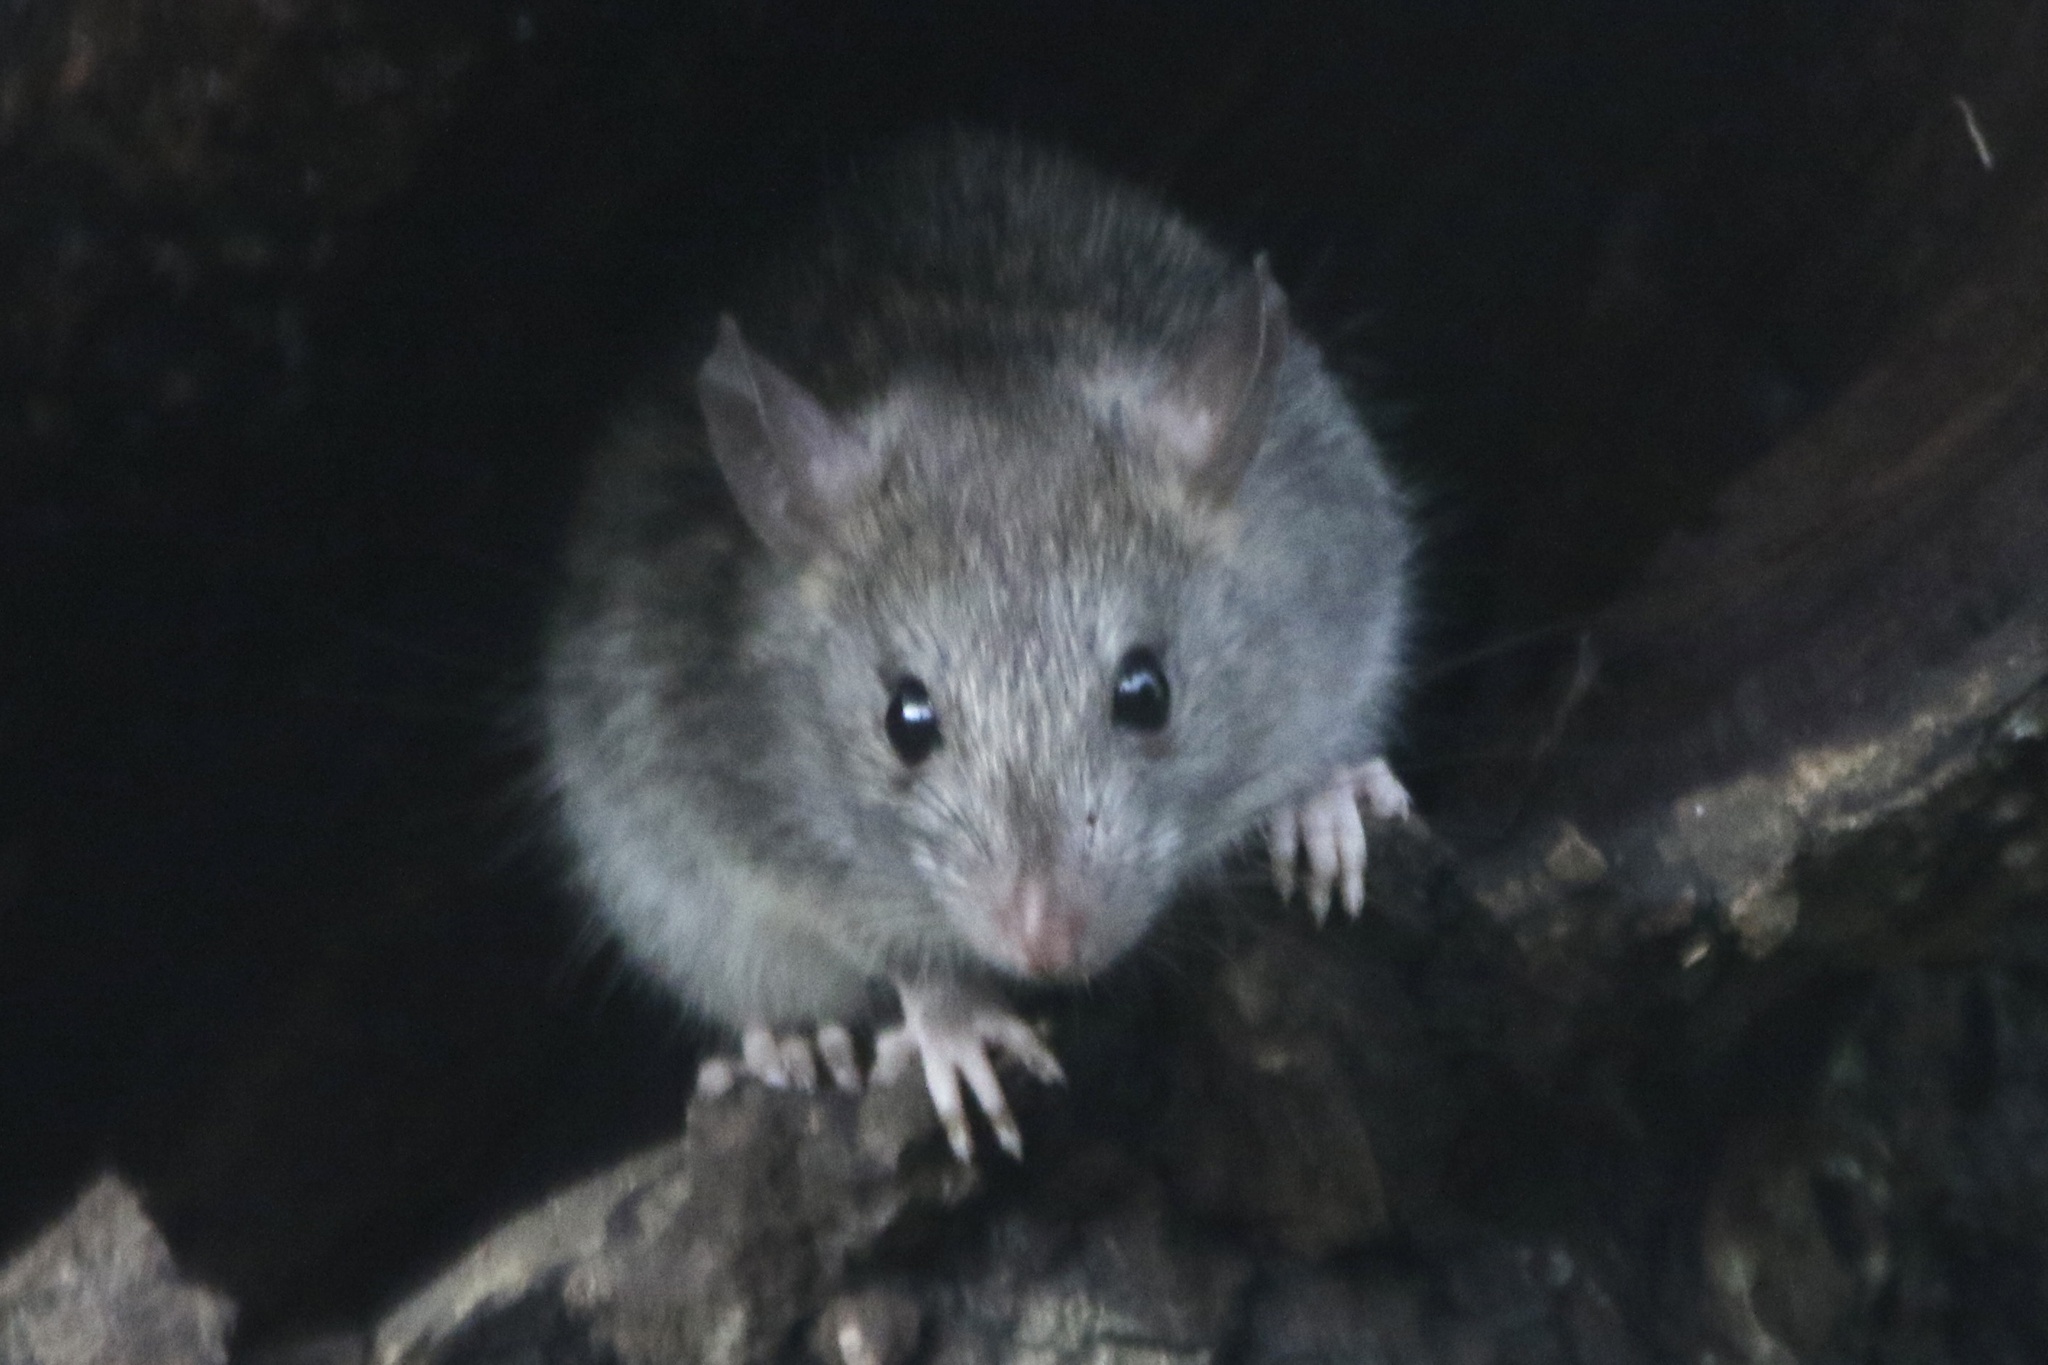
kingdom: Animalia
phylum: Chordata
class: Mammalia
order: Rodentia
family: Muridae
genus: Rattus
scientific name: Rattus rattus
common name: Black rat
